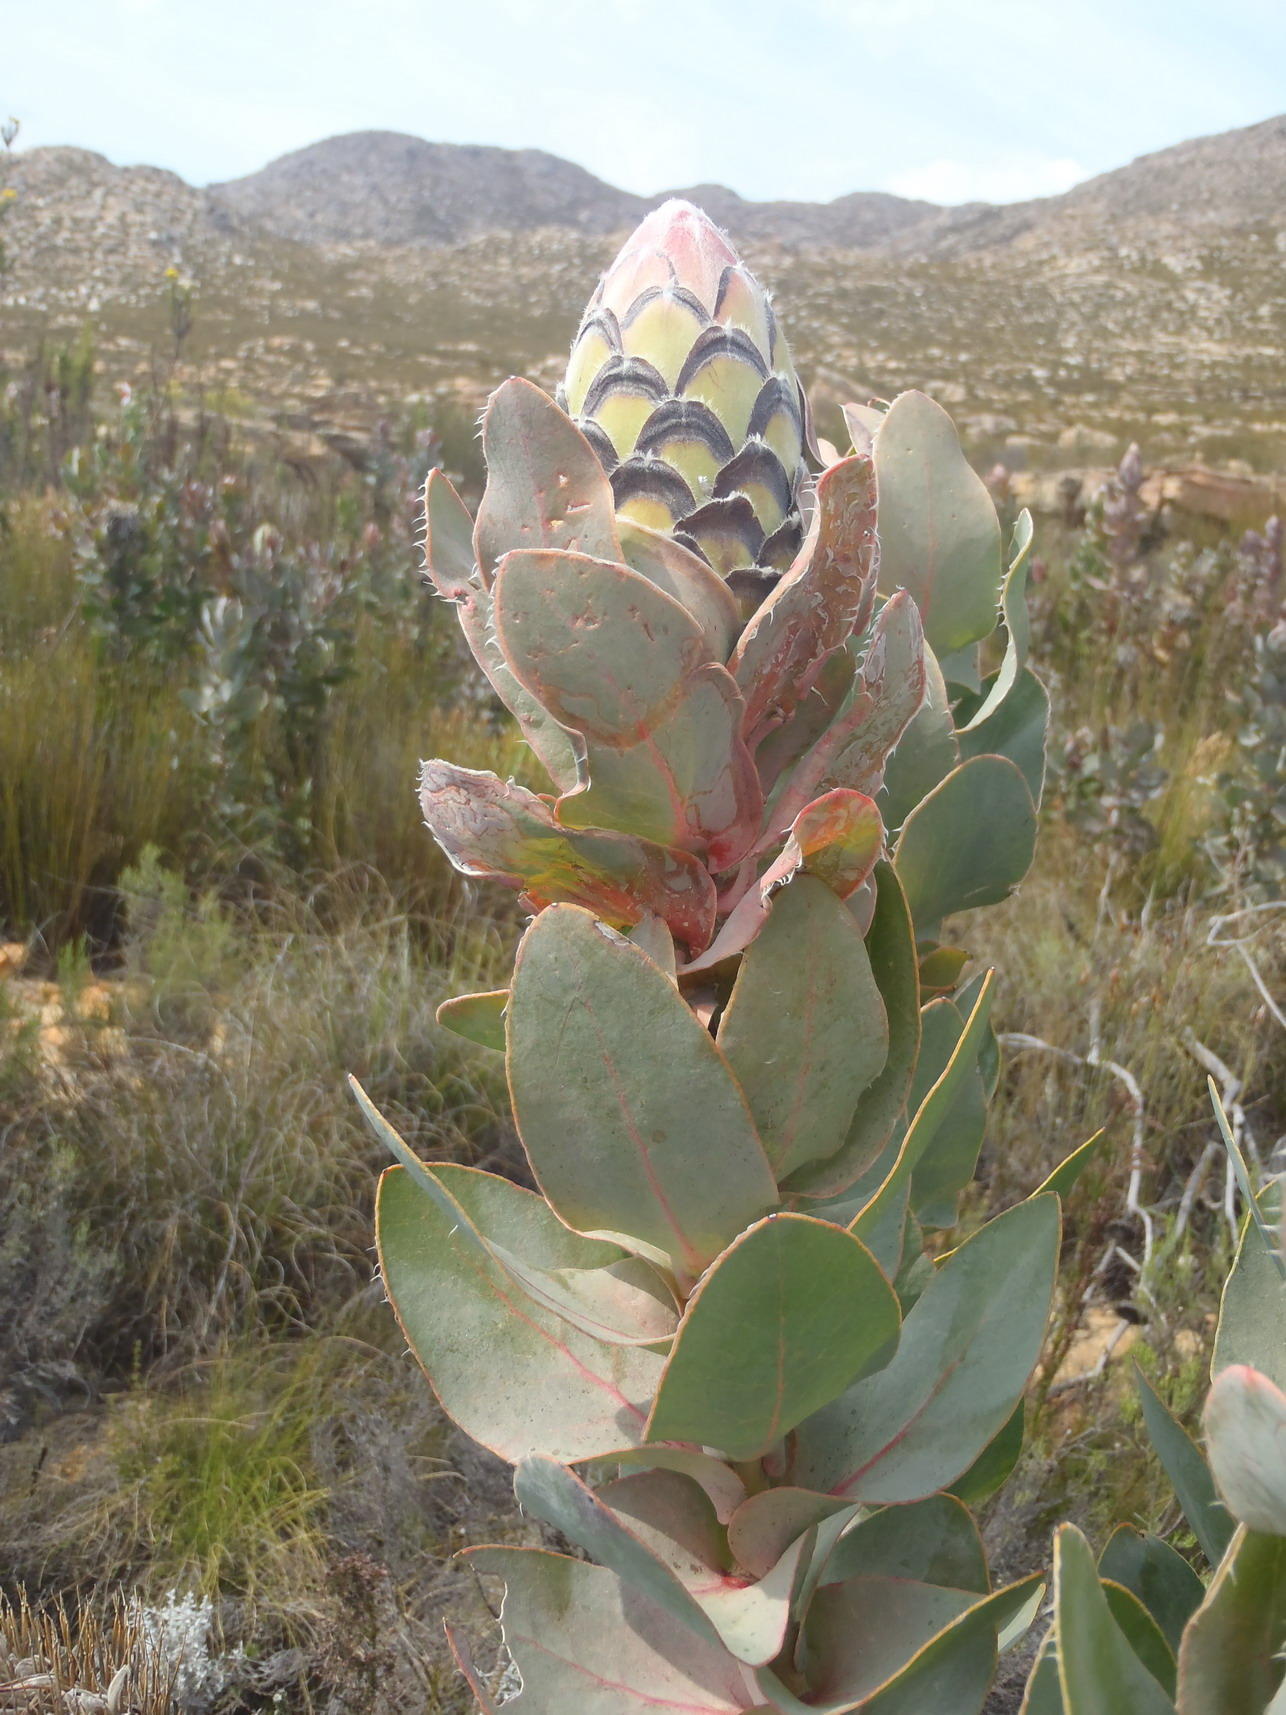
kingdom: Plantae
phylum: Tracheophyta
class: Magnoliopsida
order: Proteales
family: Proteaceae
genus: Protea
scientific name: Protea eximia
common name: Broad-leaved sugarbush
